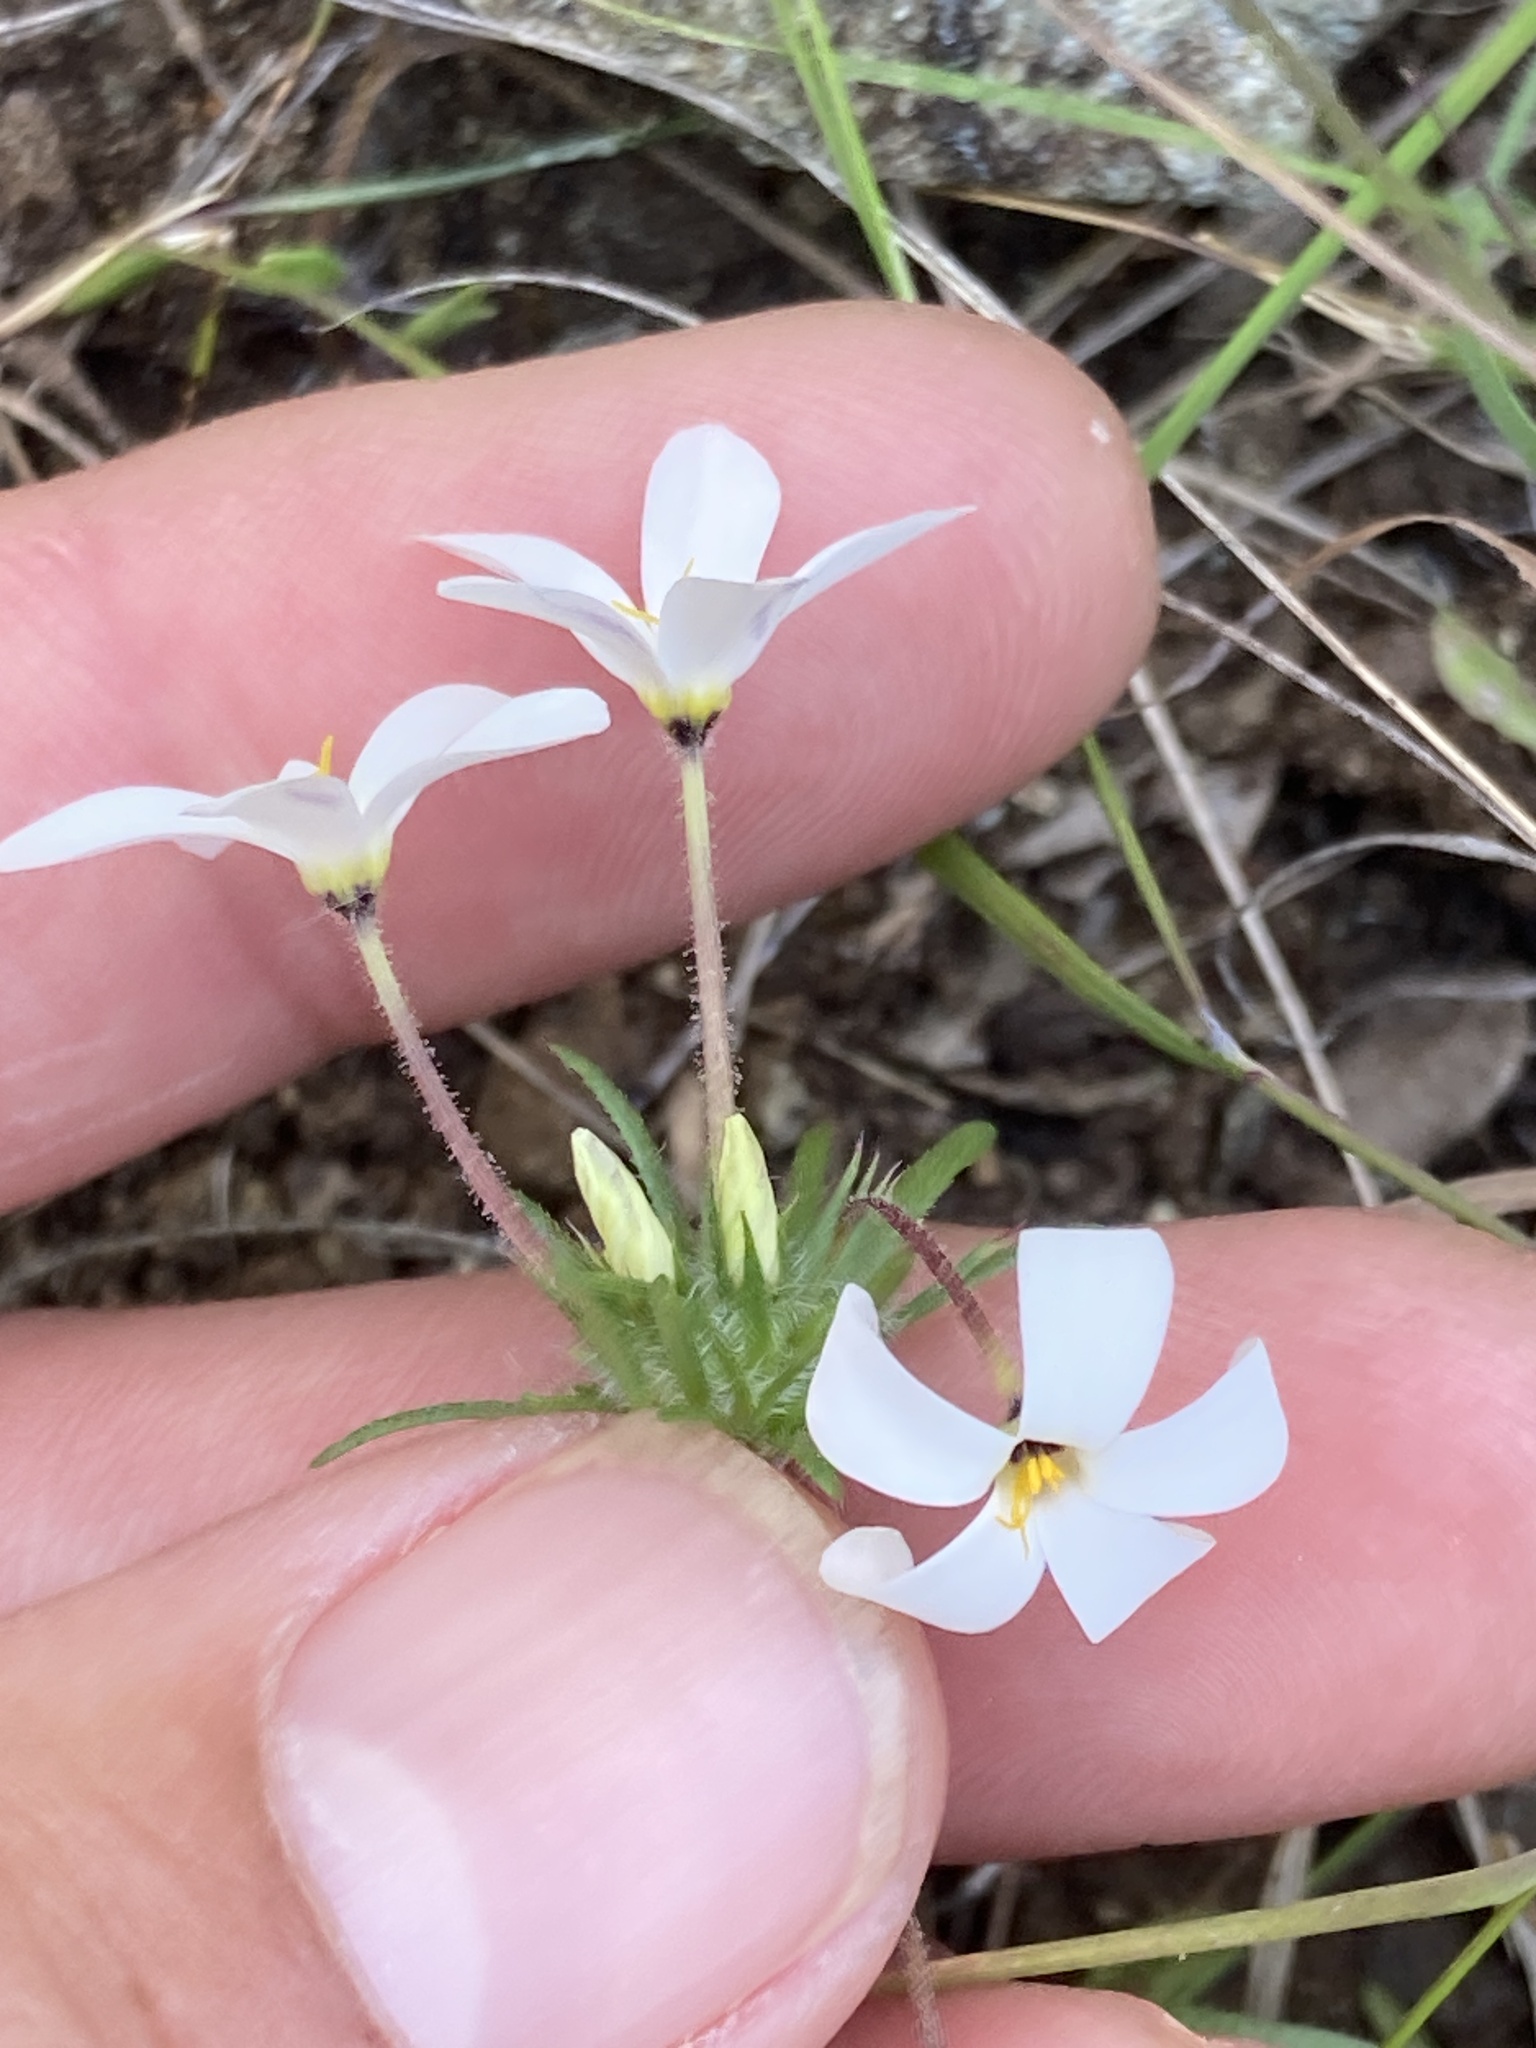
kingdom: Plantae
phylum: Tracheophyta
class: Magnoliopsida
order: Ericales
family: Polemoniaceae
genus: Leptosiphon
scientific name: Leptosiphon androsaceus
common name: False babystars
